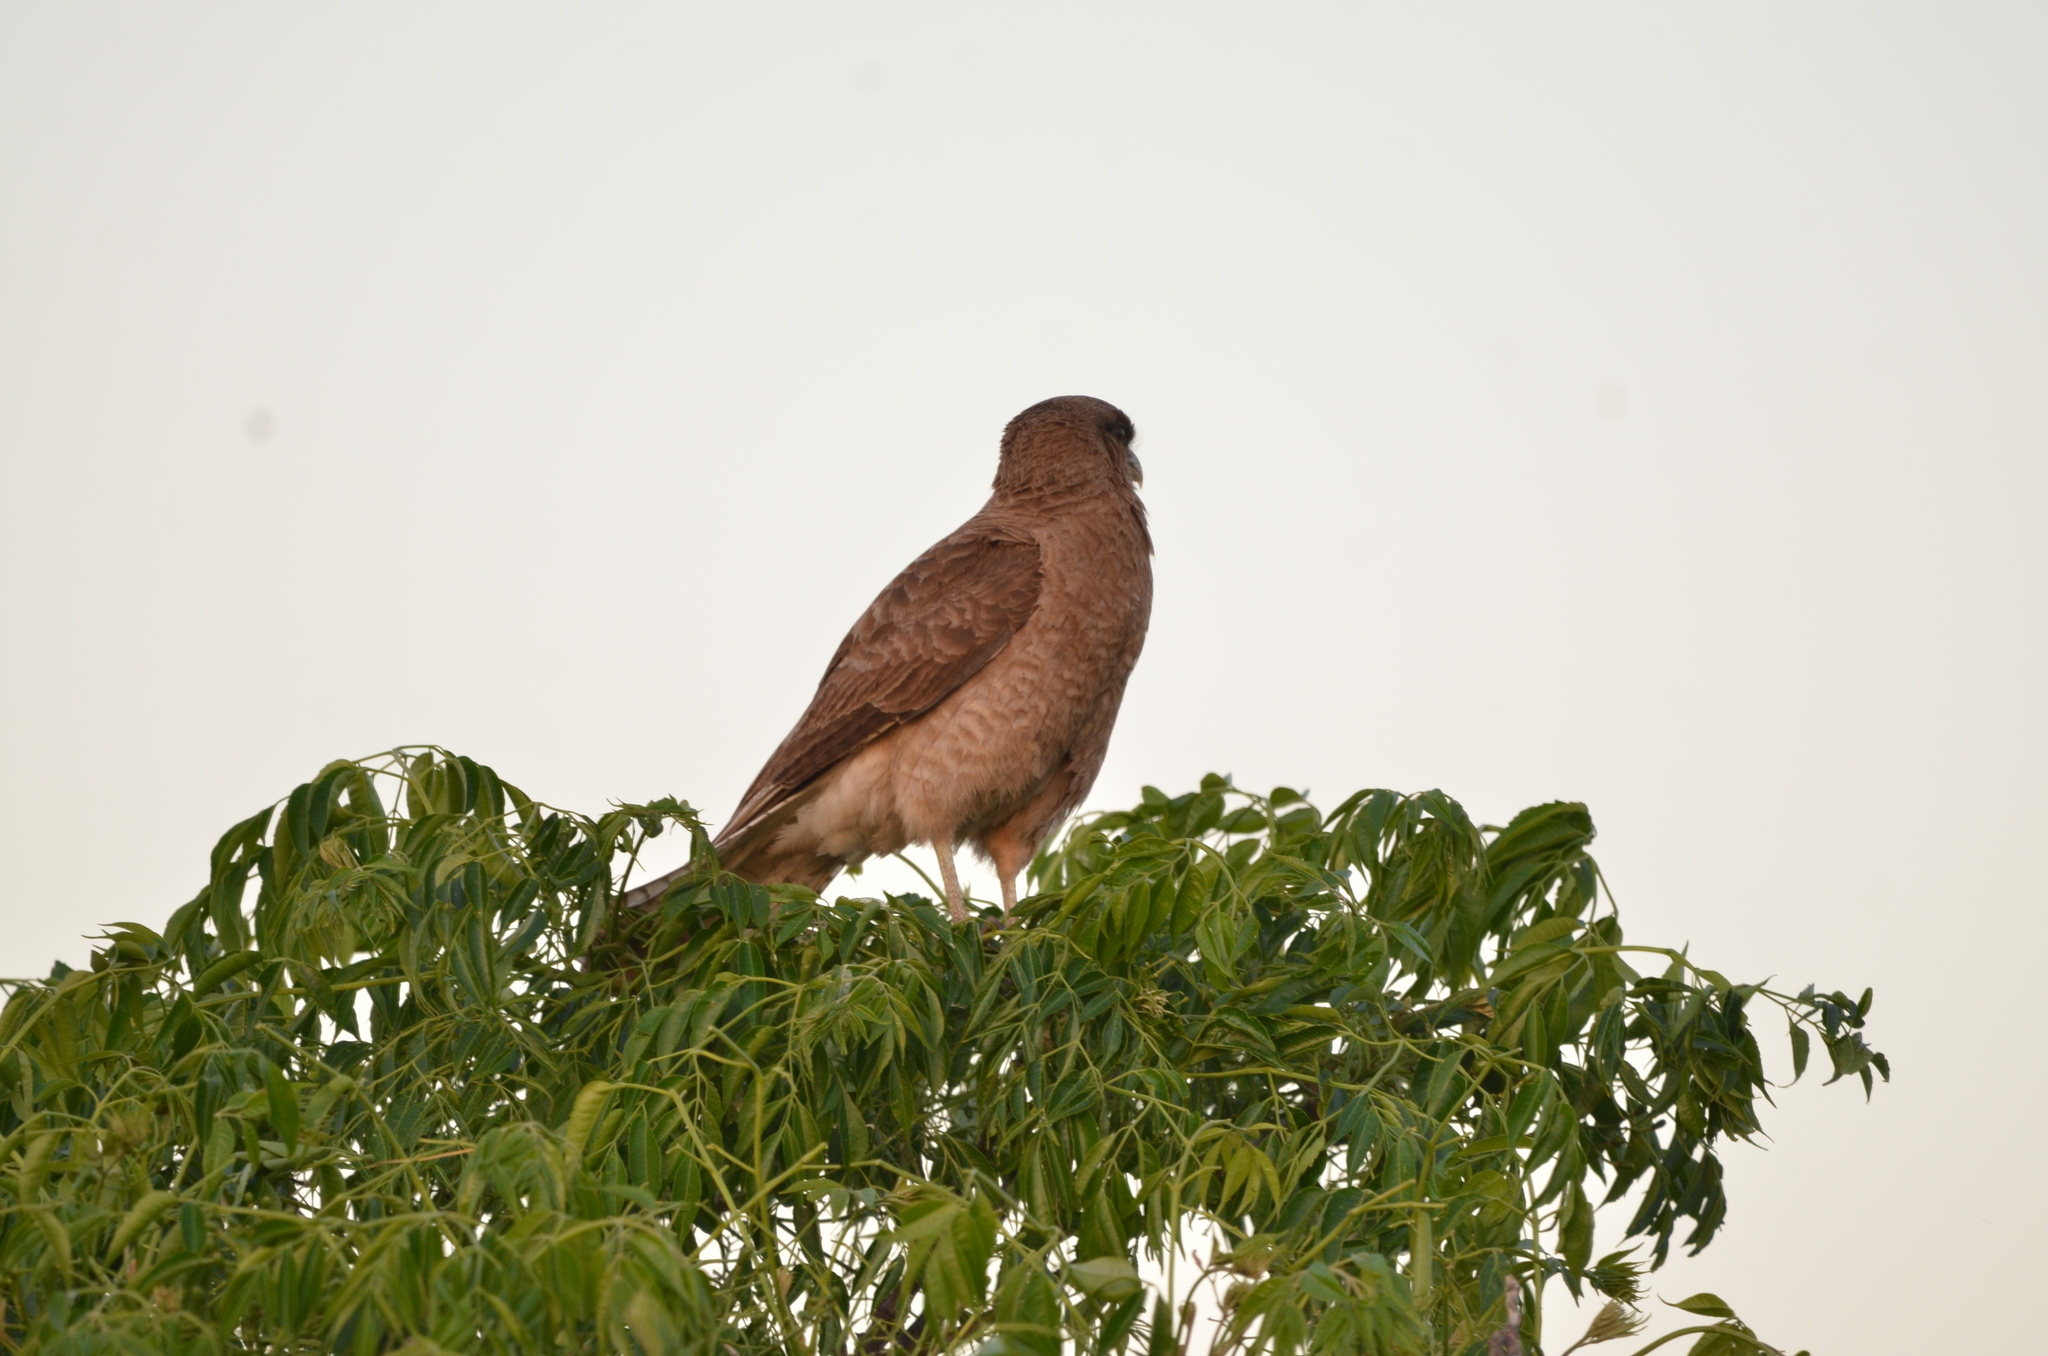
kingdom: Animalia
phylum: Chordata
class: Aves
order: Falconiformes
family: Falconidae
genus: Daptrius
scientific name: Daptrius
